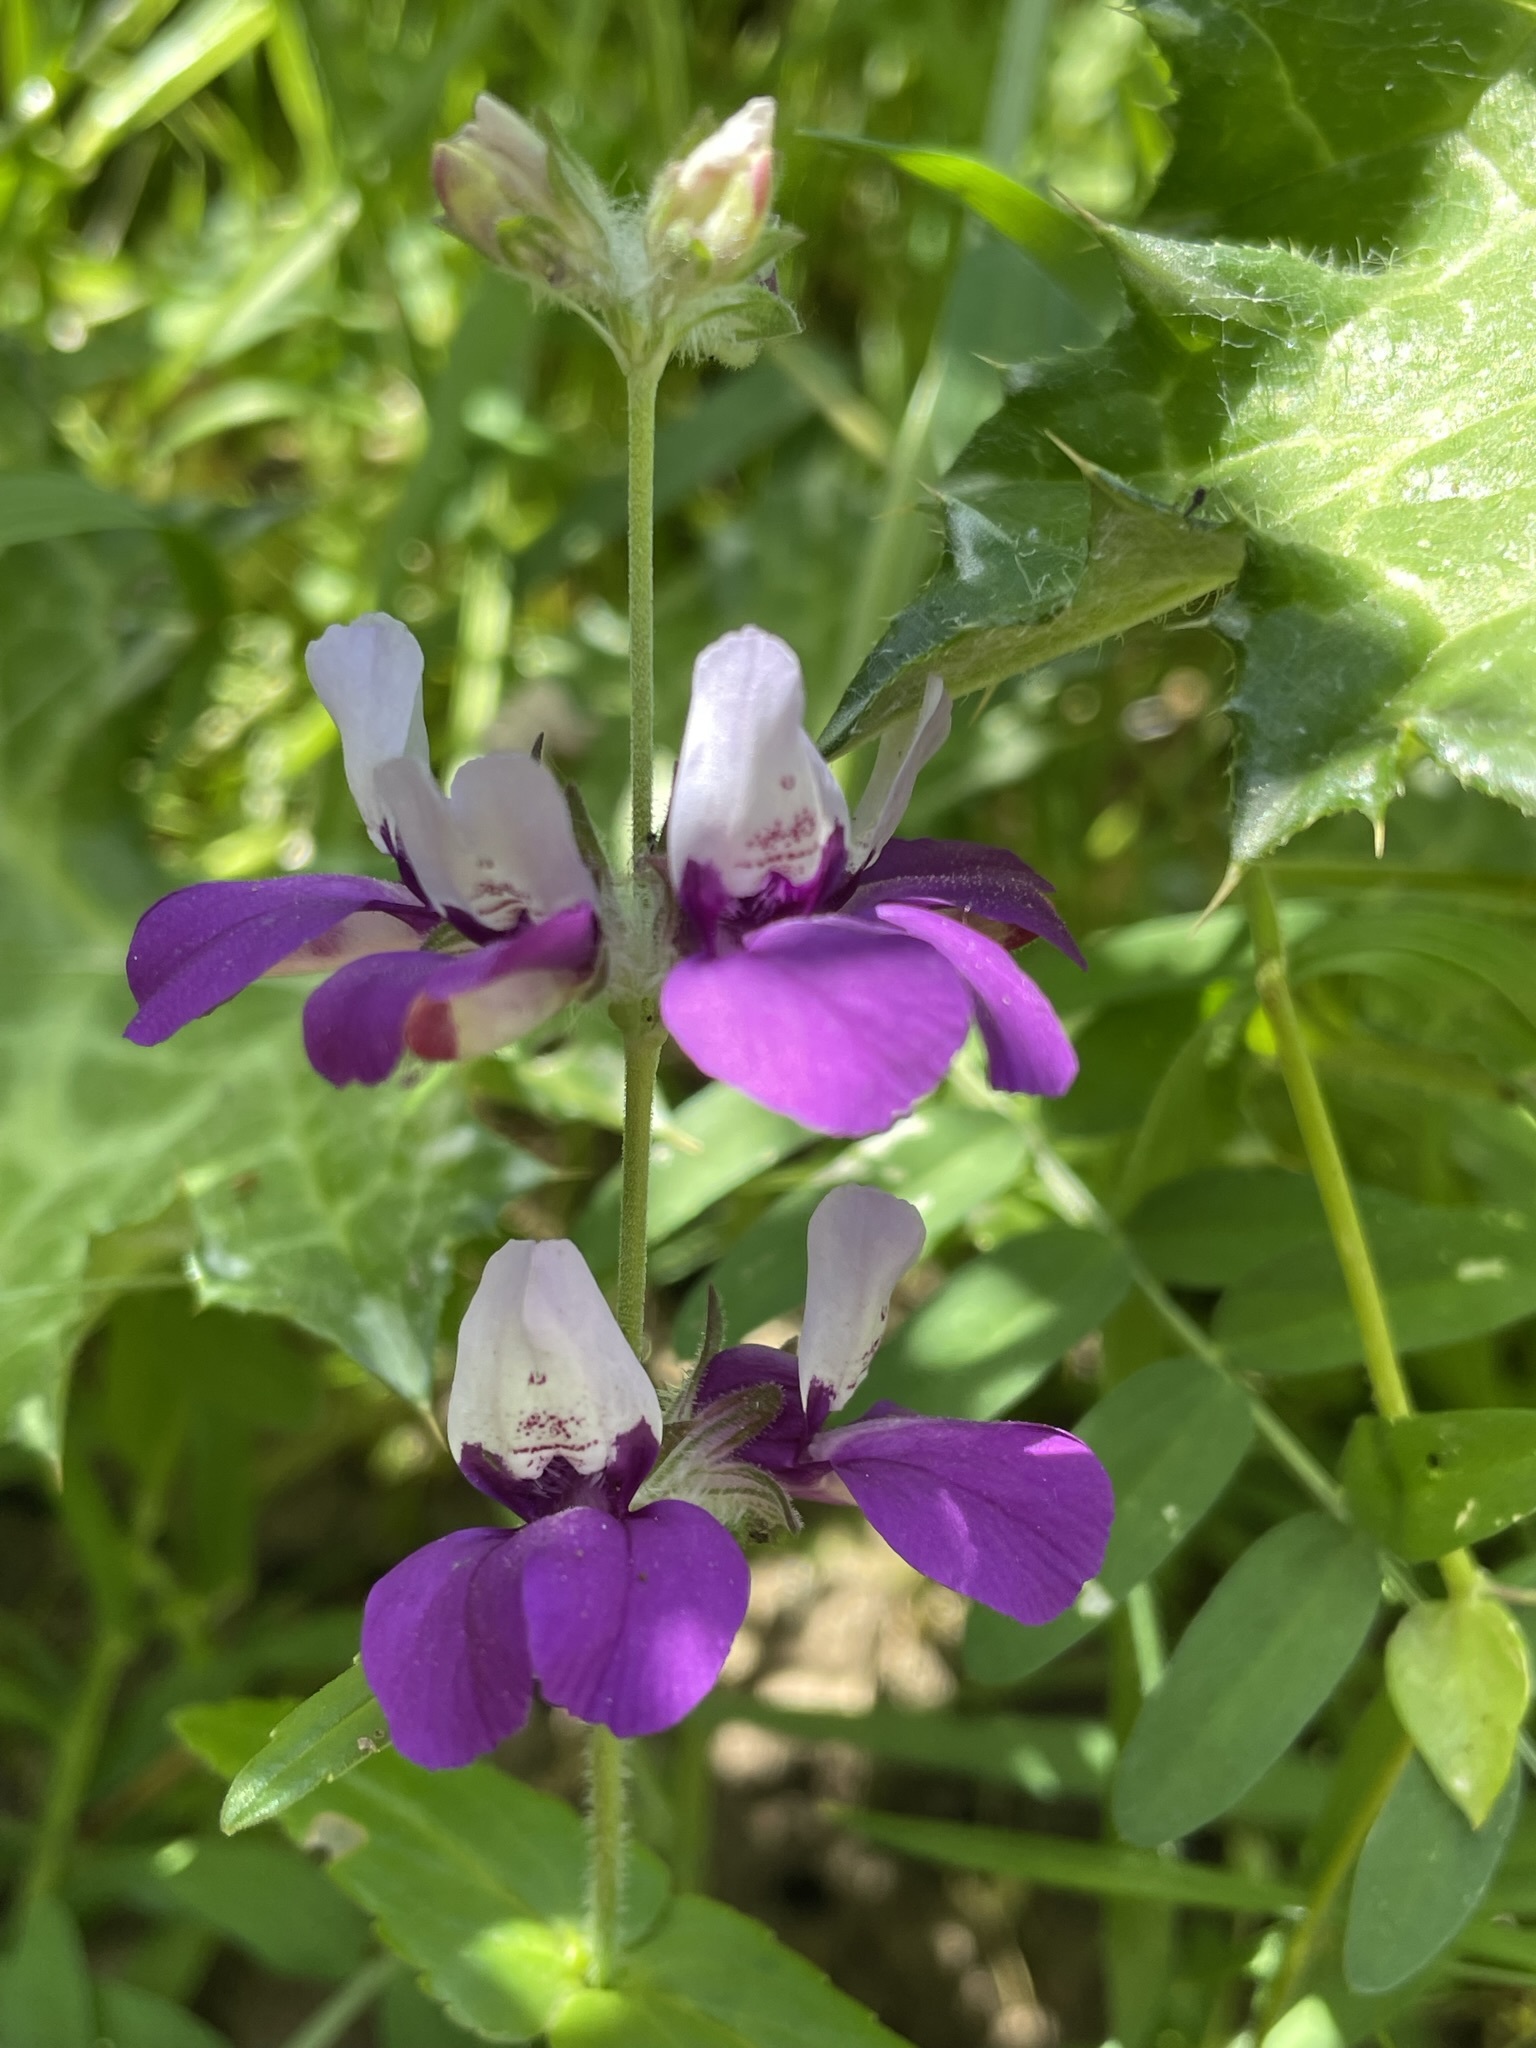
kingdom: Plantae
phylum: Tracheophyta
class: Magnoliopsida
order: Lamiales
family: Plantaginaceae
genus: Collinsia
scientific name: Collinsia heterophylla
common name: Chinese-houses
